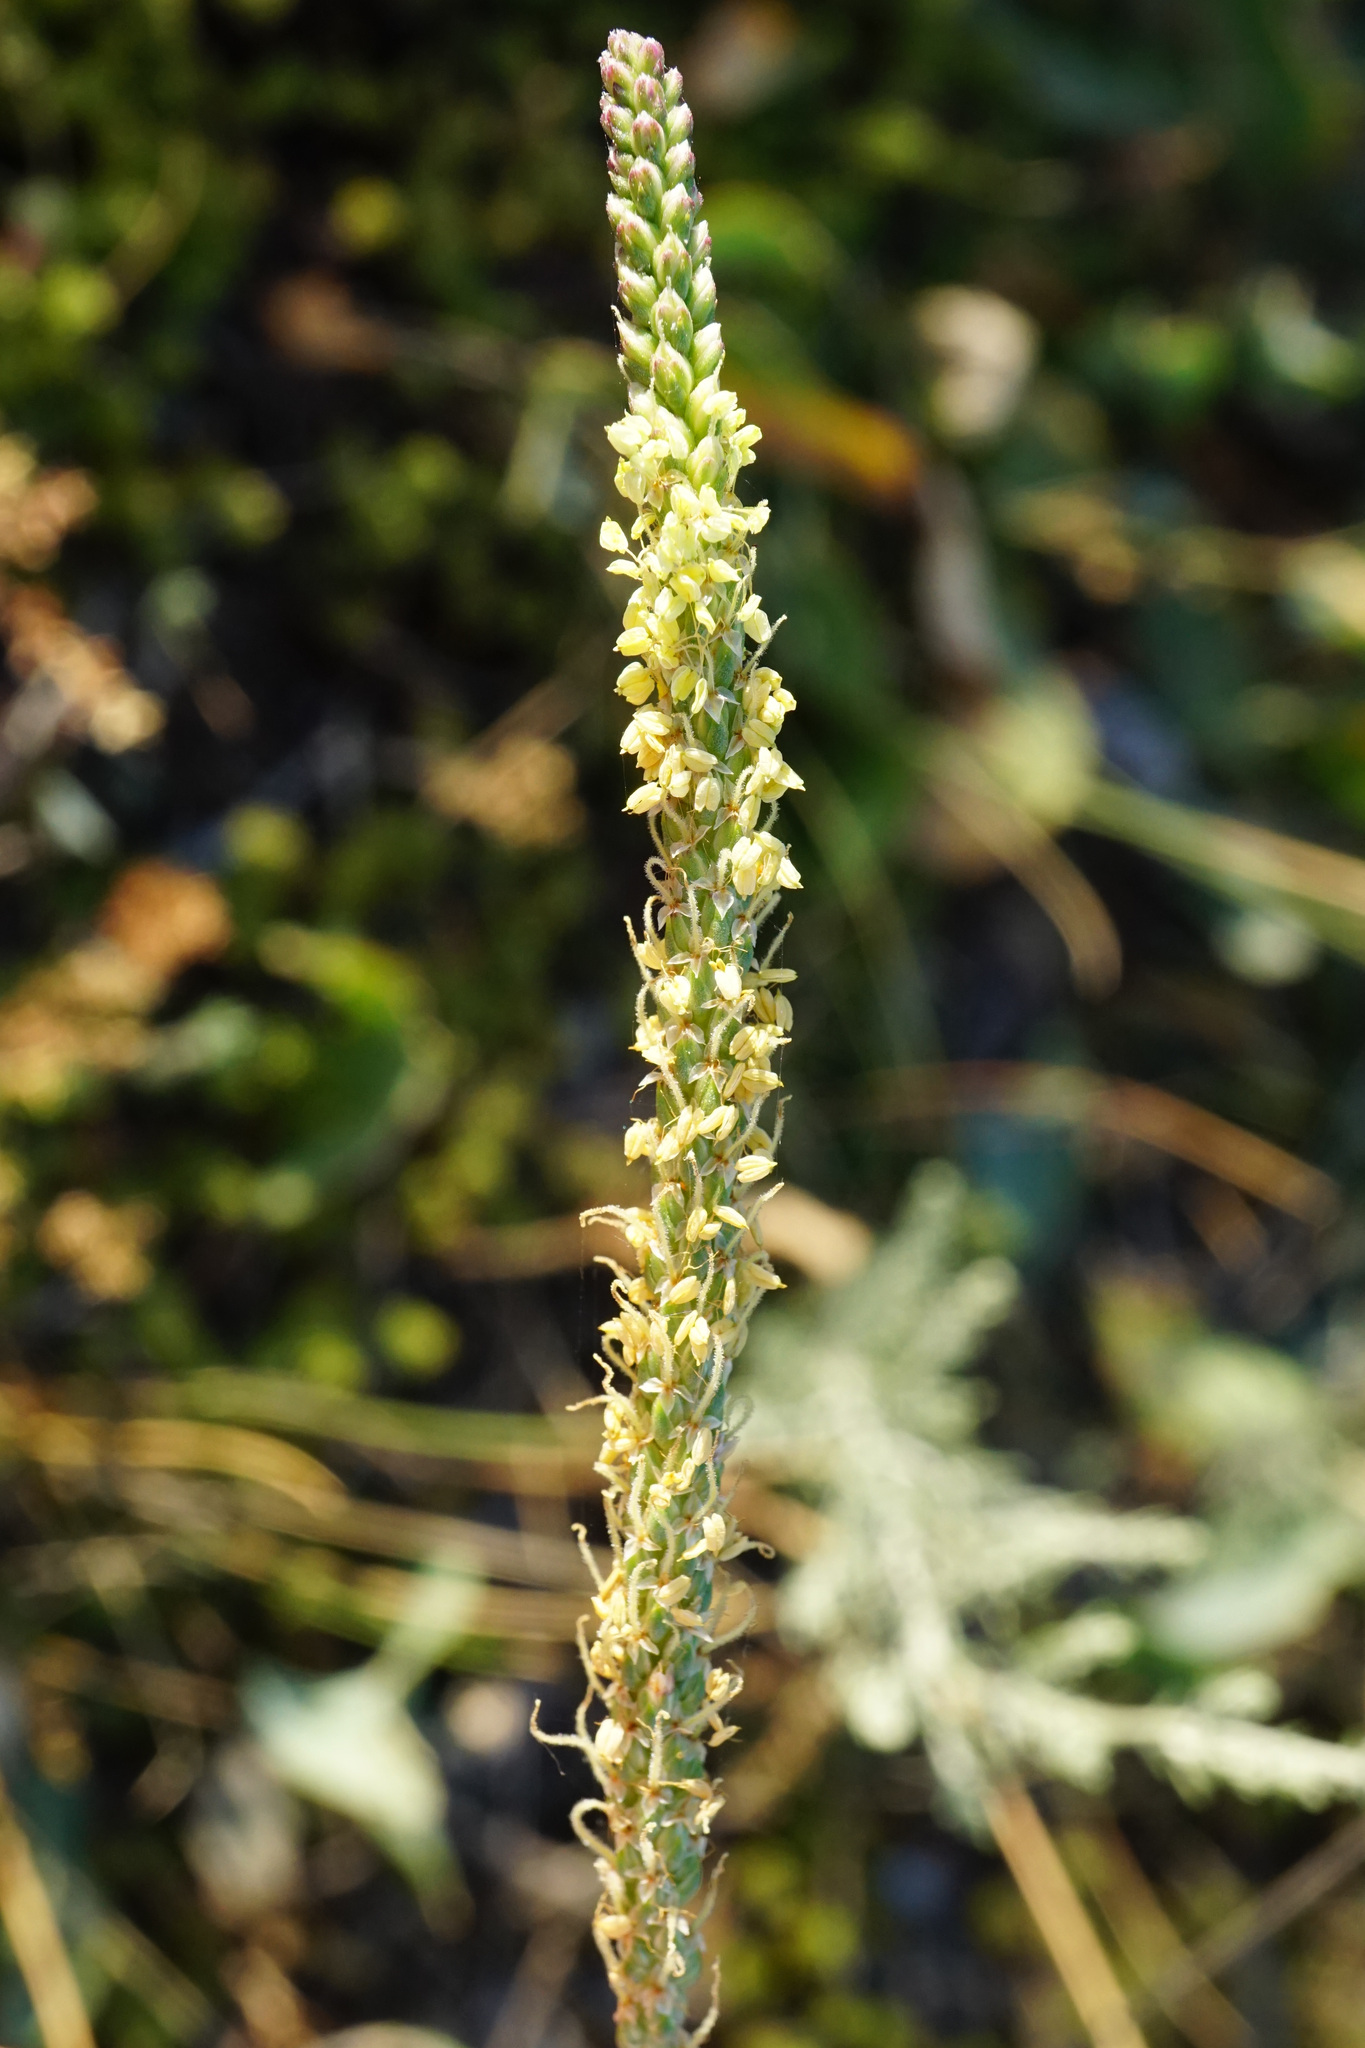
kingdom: Plantae
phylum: Tracheophyta
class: Magnoliopsida
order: Lamiales
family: Plantaginaceae
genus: Plantago
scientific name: Plantago maritima
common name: Sea plantain
